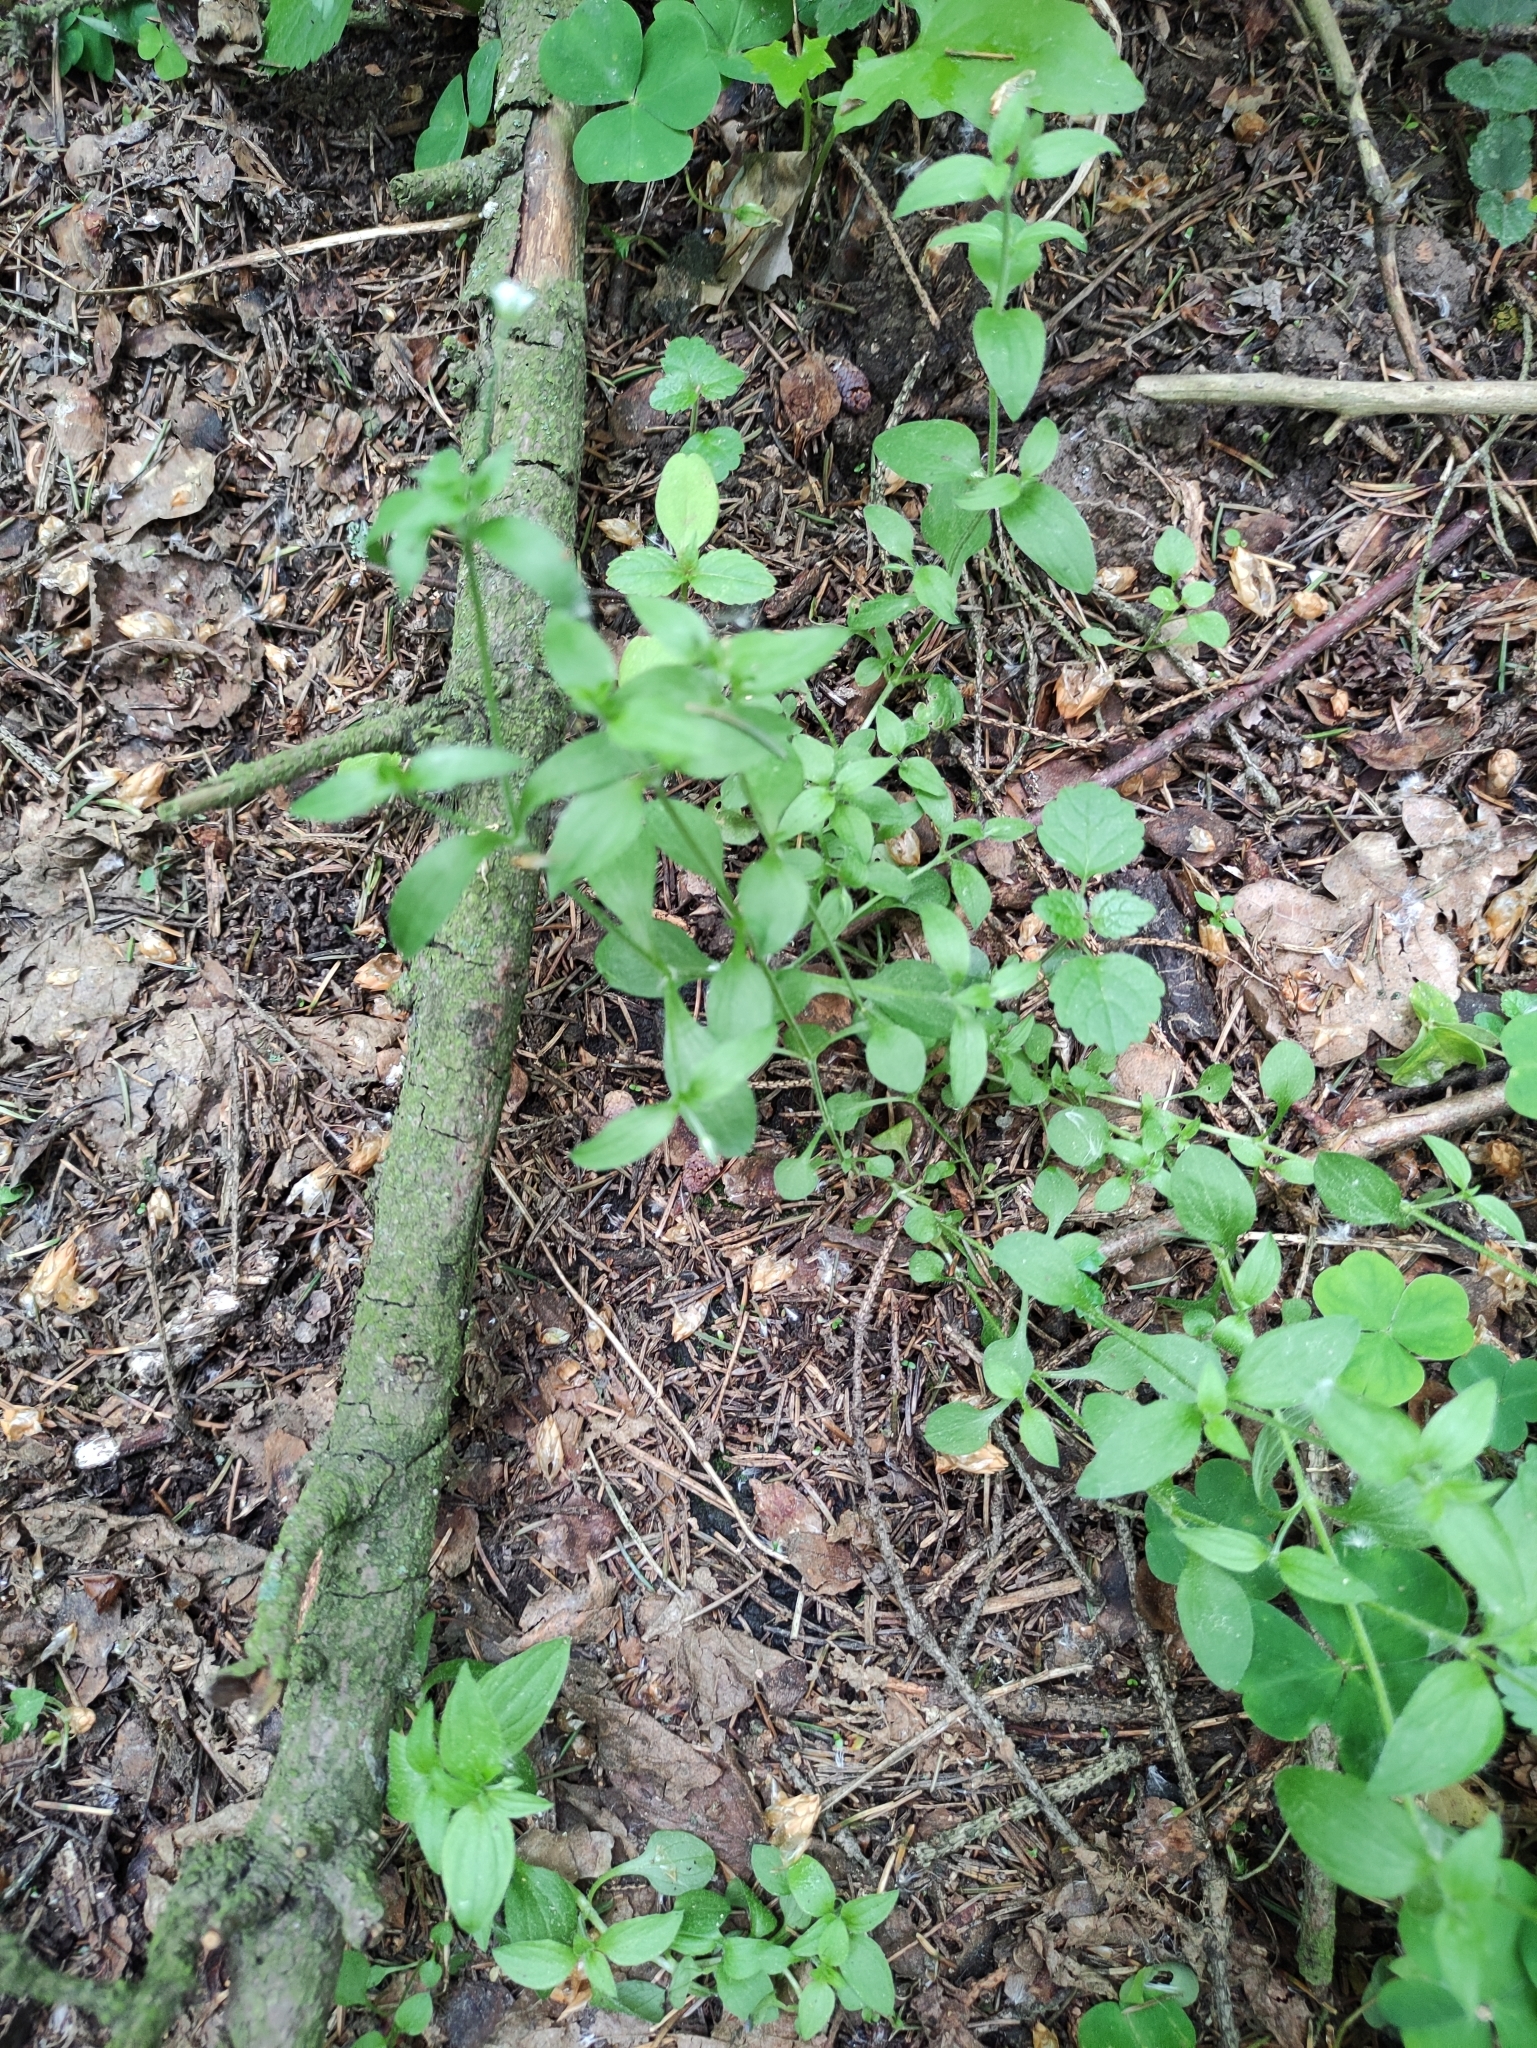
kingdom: Plantae
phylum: Tracheophyta
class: Magnoliopsida
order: Caryophyllales
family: Caryophyllaceae
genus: Moehringia
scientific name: Moehringia trinervia
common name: Three-nerved sandwort
